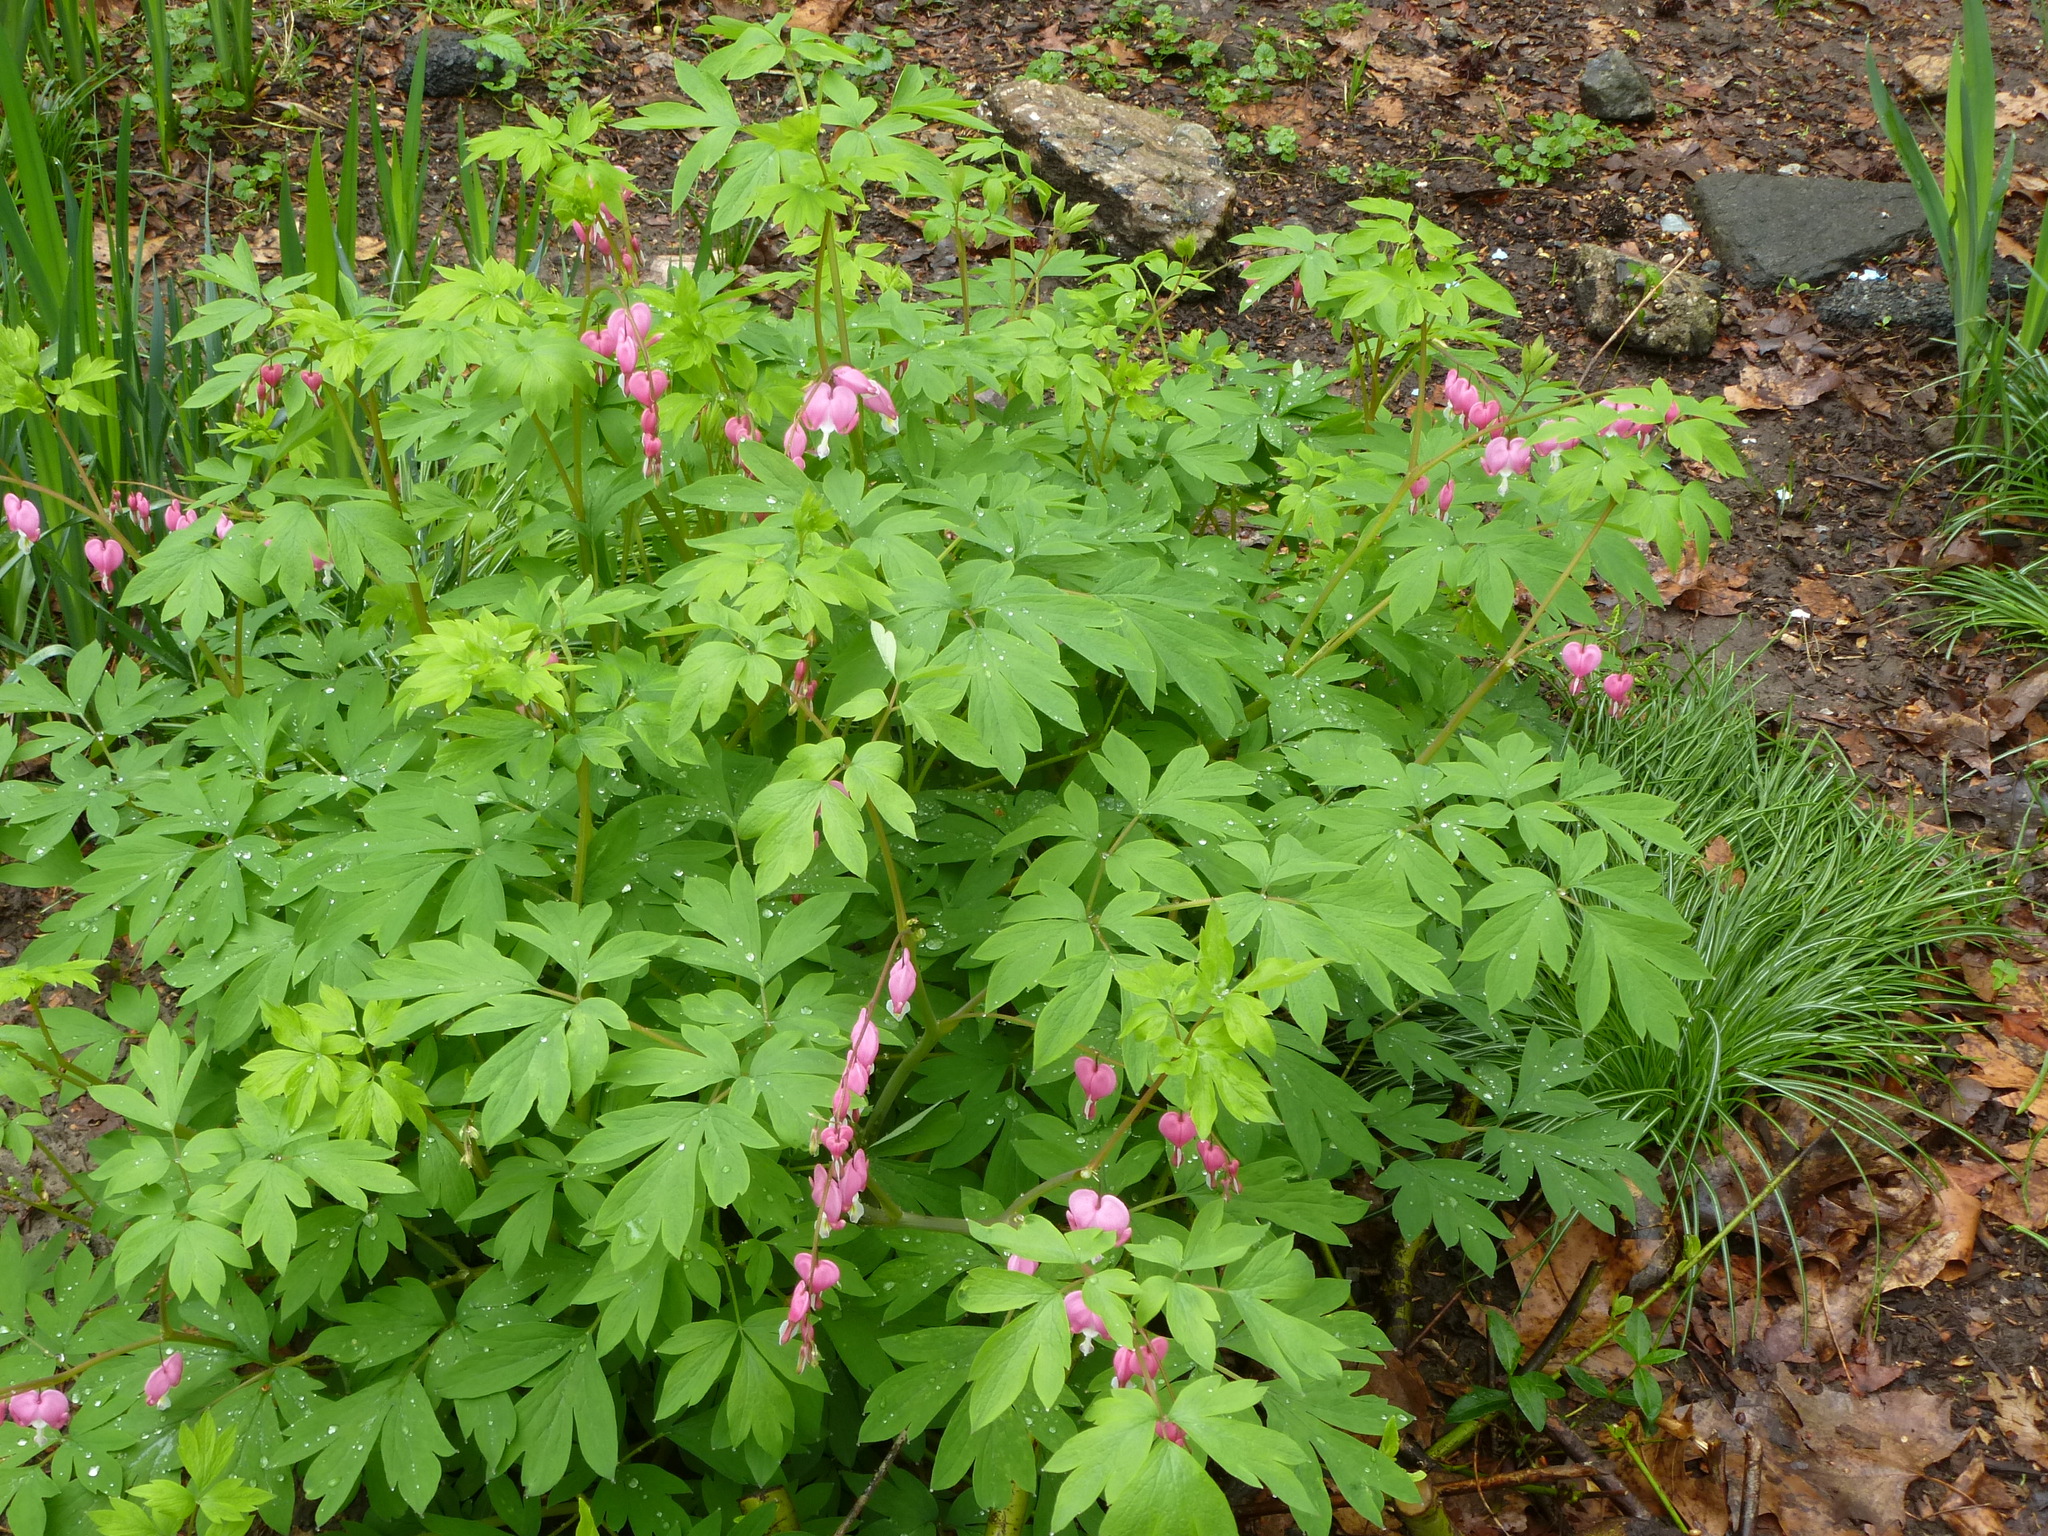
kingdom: Plantae
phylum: Tracheophyta
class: Magnoliopsida
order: Ranunculales
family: Papaveraceae
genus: Lamprocapnos
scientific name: Lamprocapnos spectabilis
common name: Asian bleeding-heart
